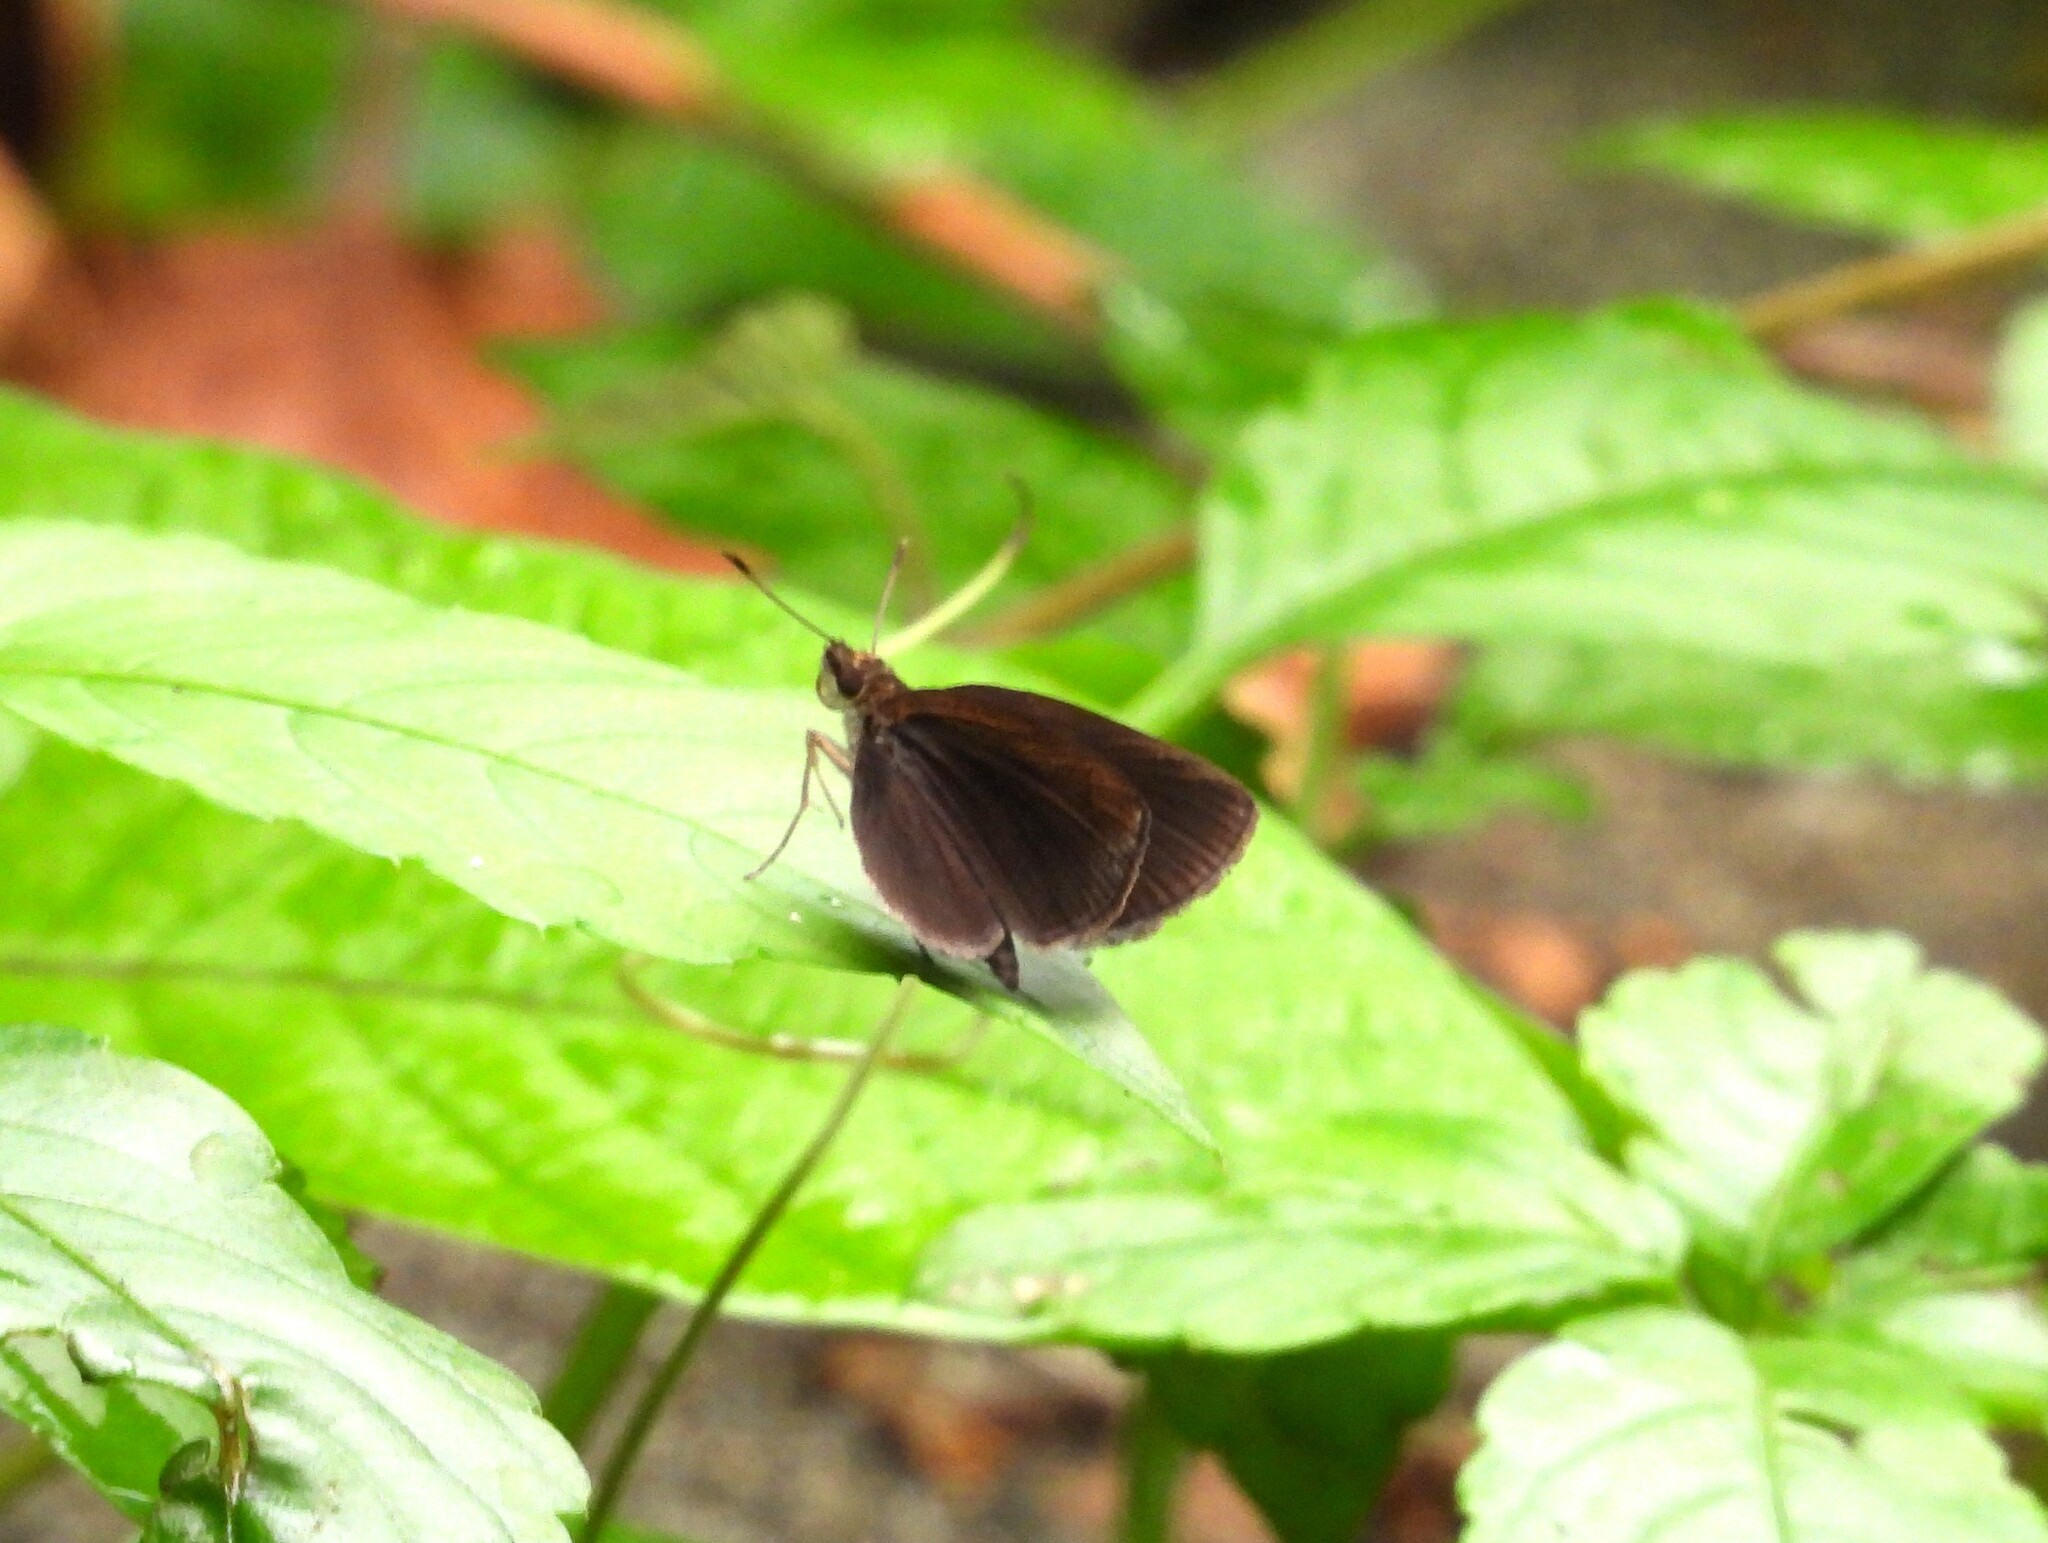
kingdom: Animalia
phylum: Arthropoda
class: Insecta
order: Lepidoptera
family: Hesperiidae
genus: Astictopterus
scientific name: Astictopterus jama
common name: Forest hopper
